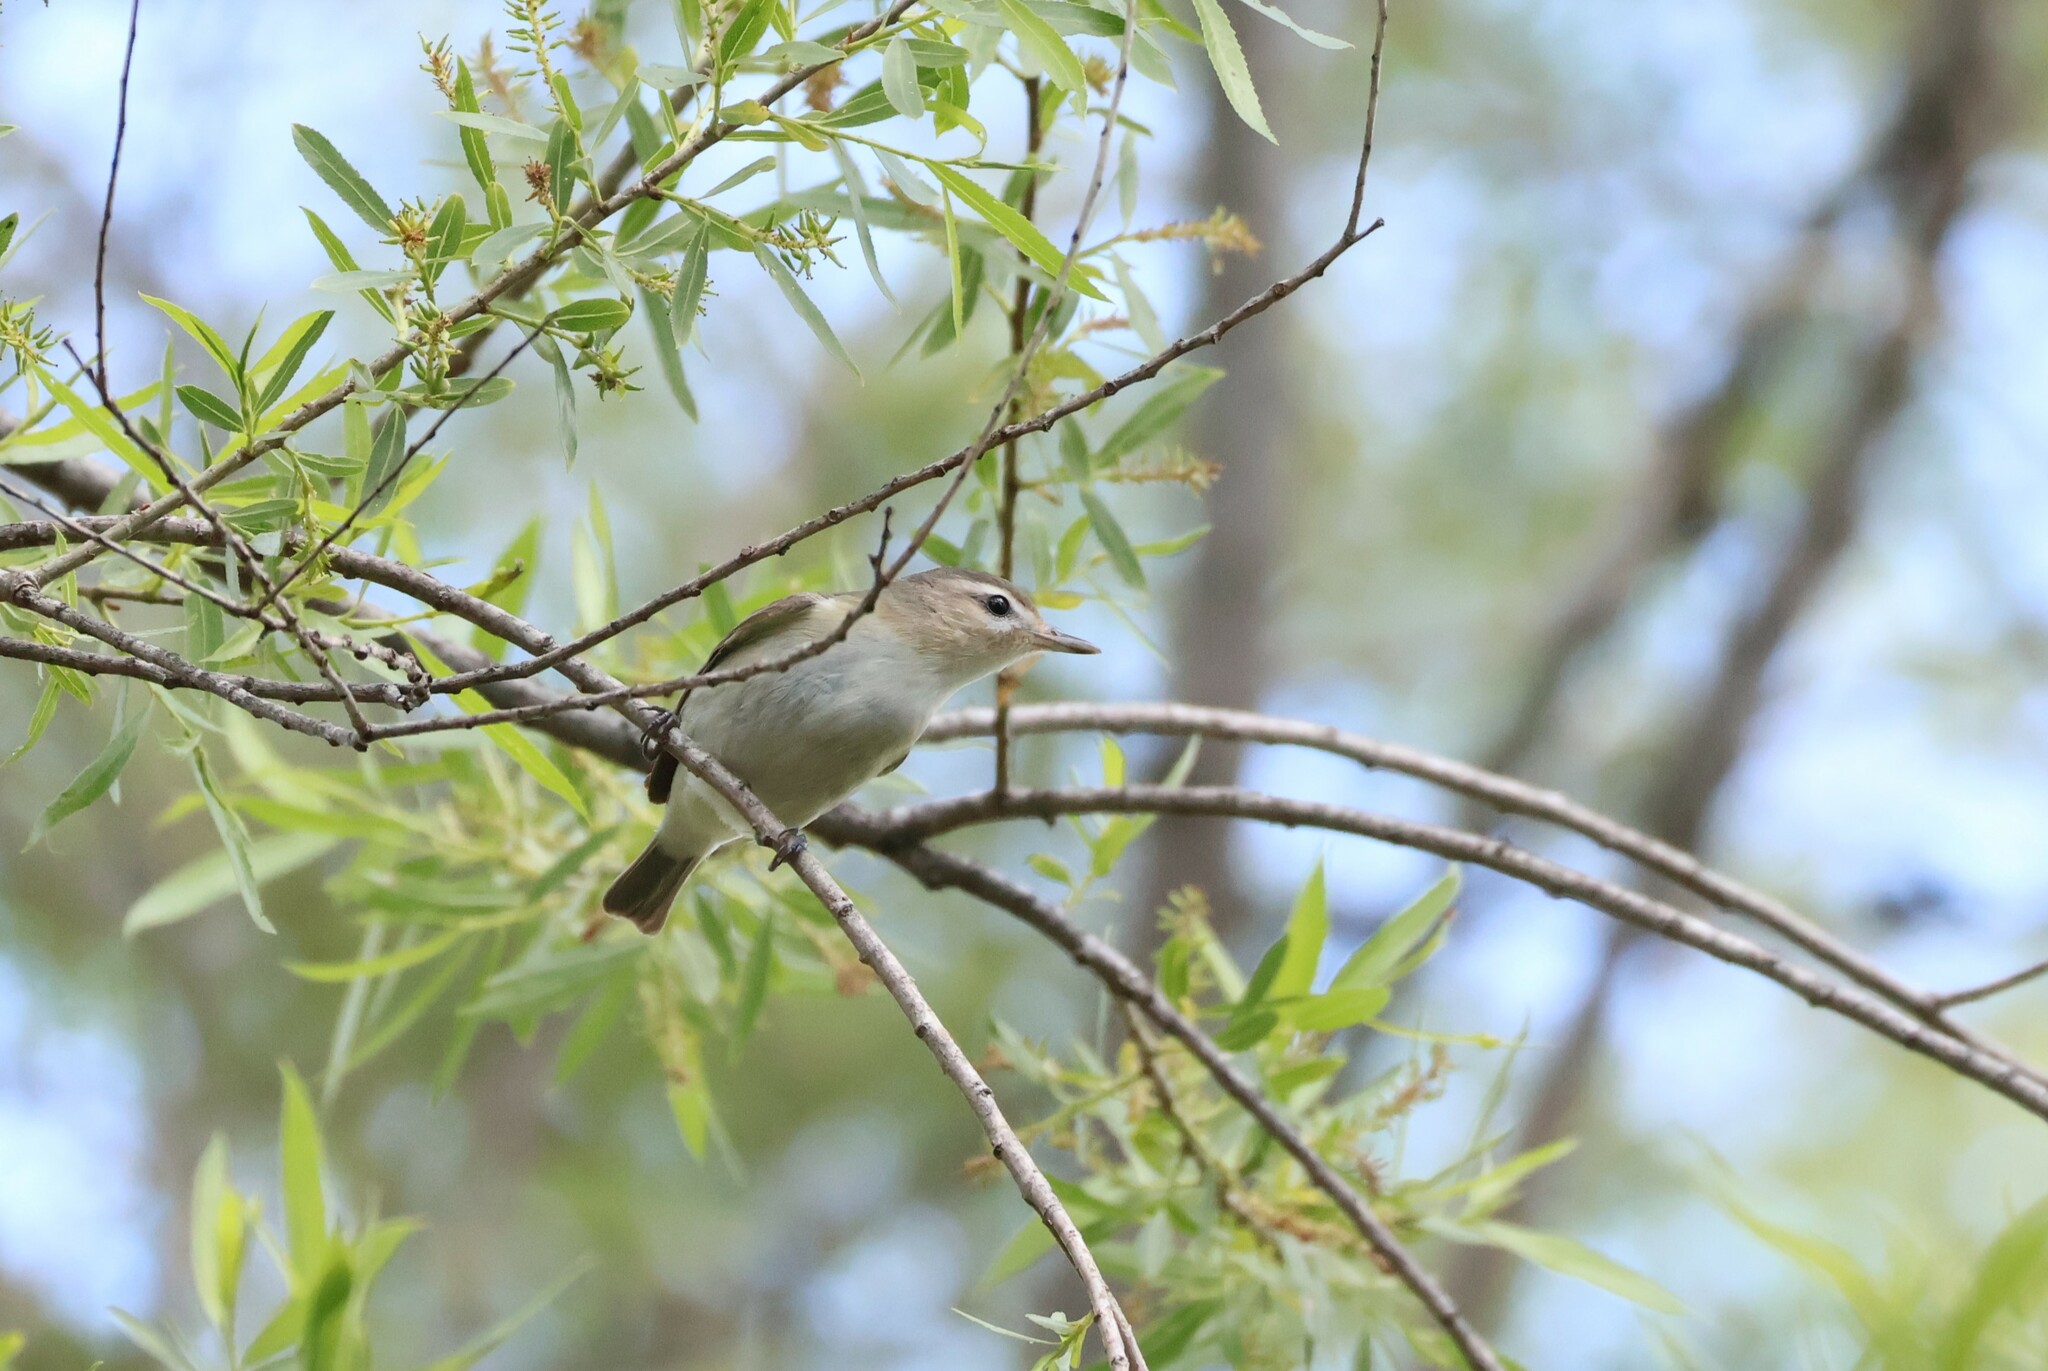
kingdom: Animalia
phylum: Chordata
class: Aves
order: Passeriformes
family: Vireonidae
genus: Vireo
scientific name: Vireo gilvus
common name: Warbling vireo
